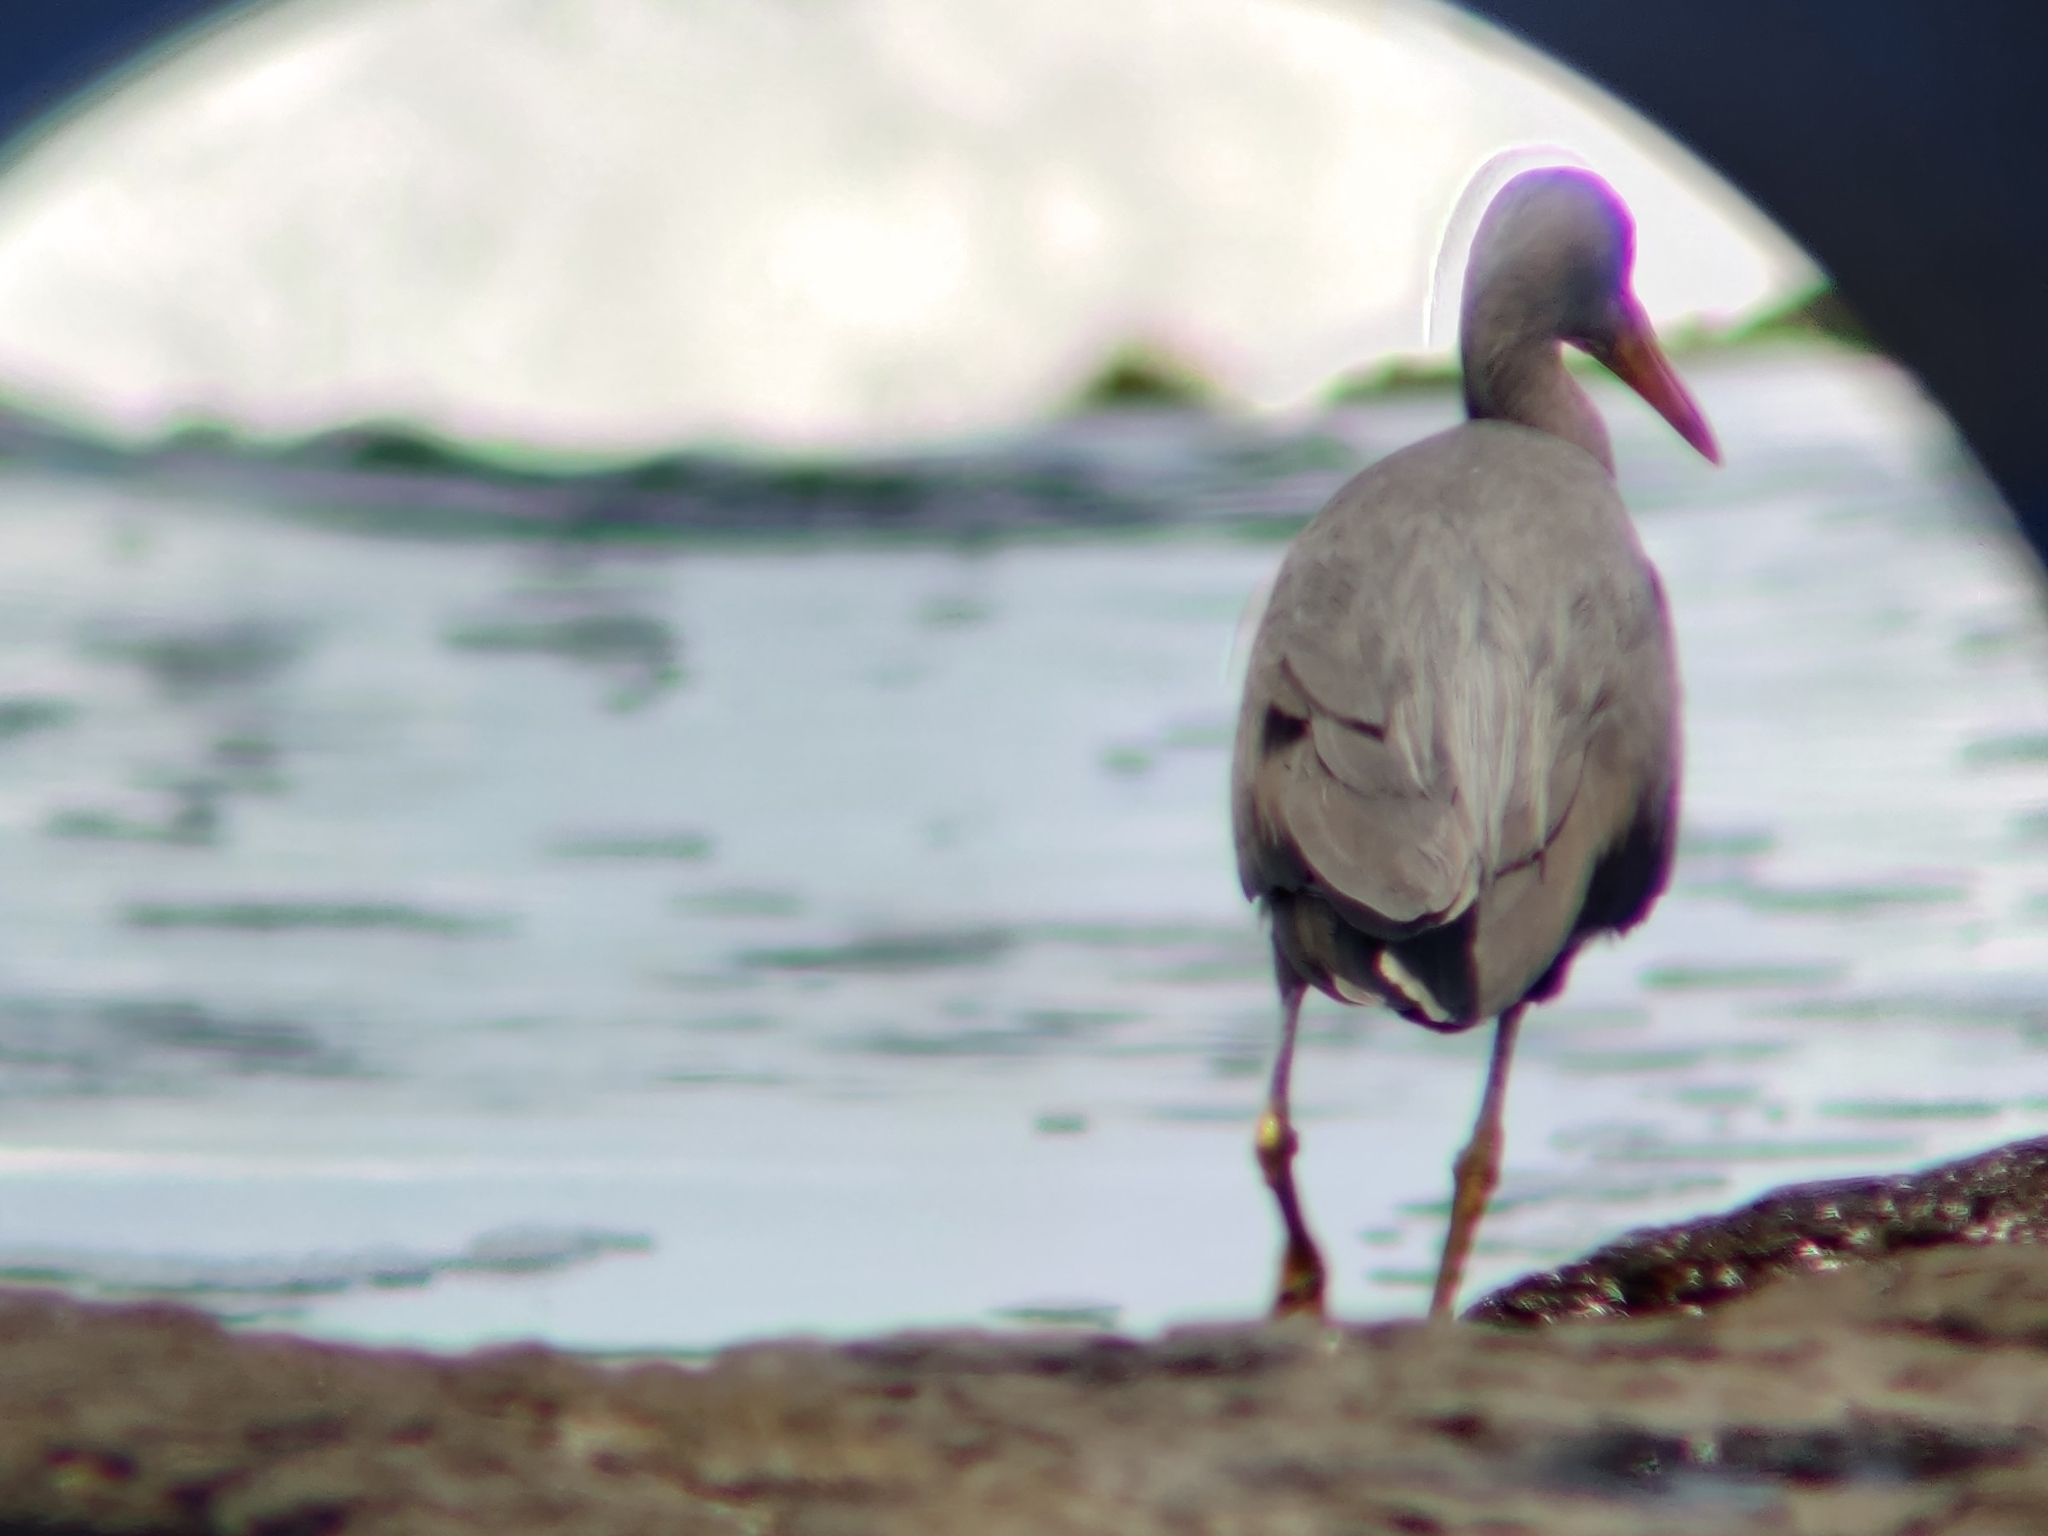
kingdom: Animalia
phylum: Chordata
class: Aves
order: Pelecaniformes
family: Ardeidae
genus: Egretta
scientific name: Egretta sacra
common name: Pacific reef heron
